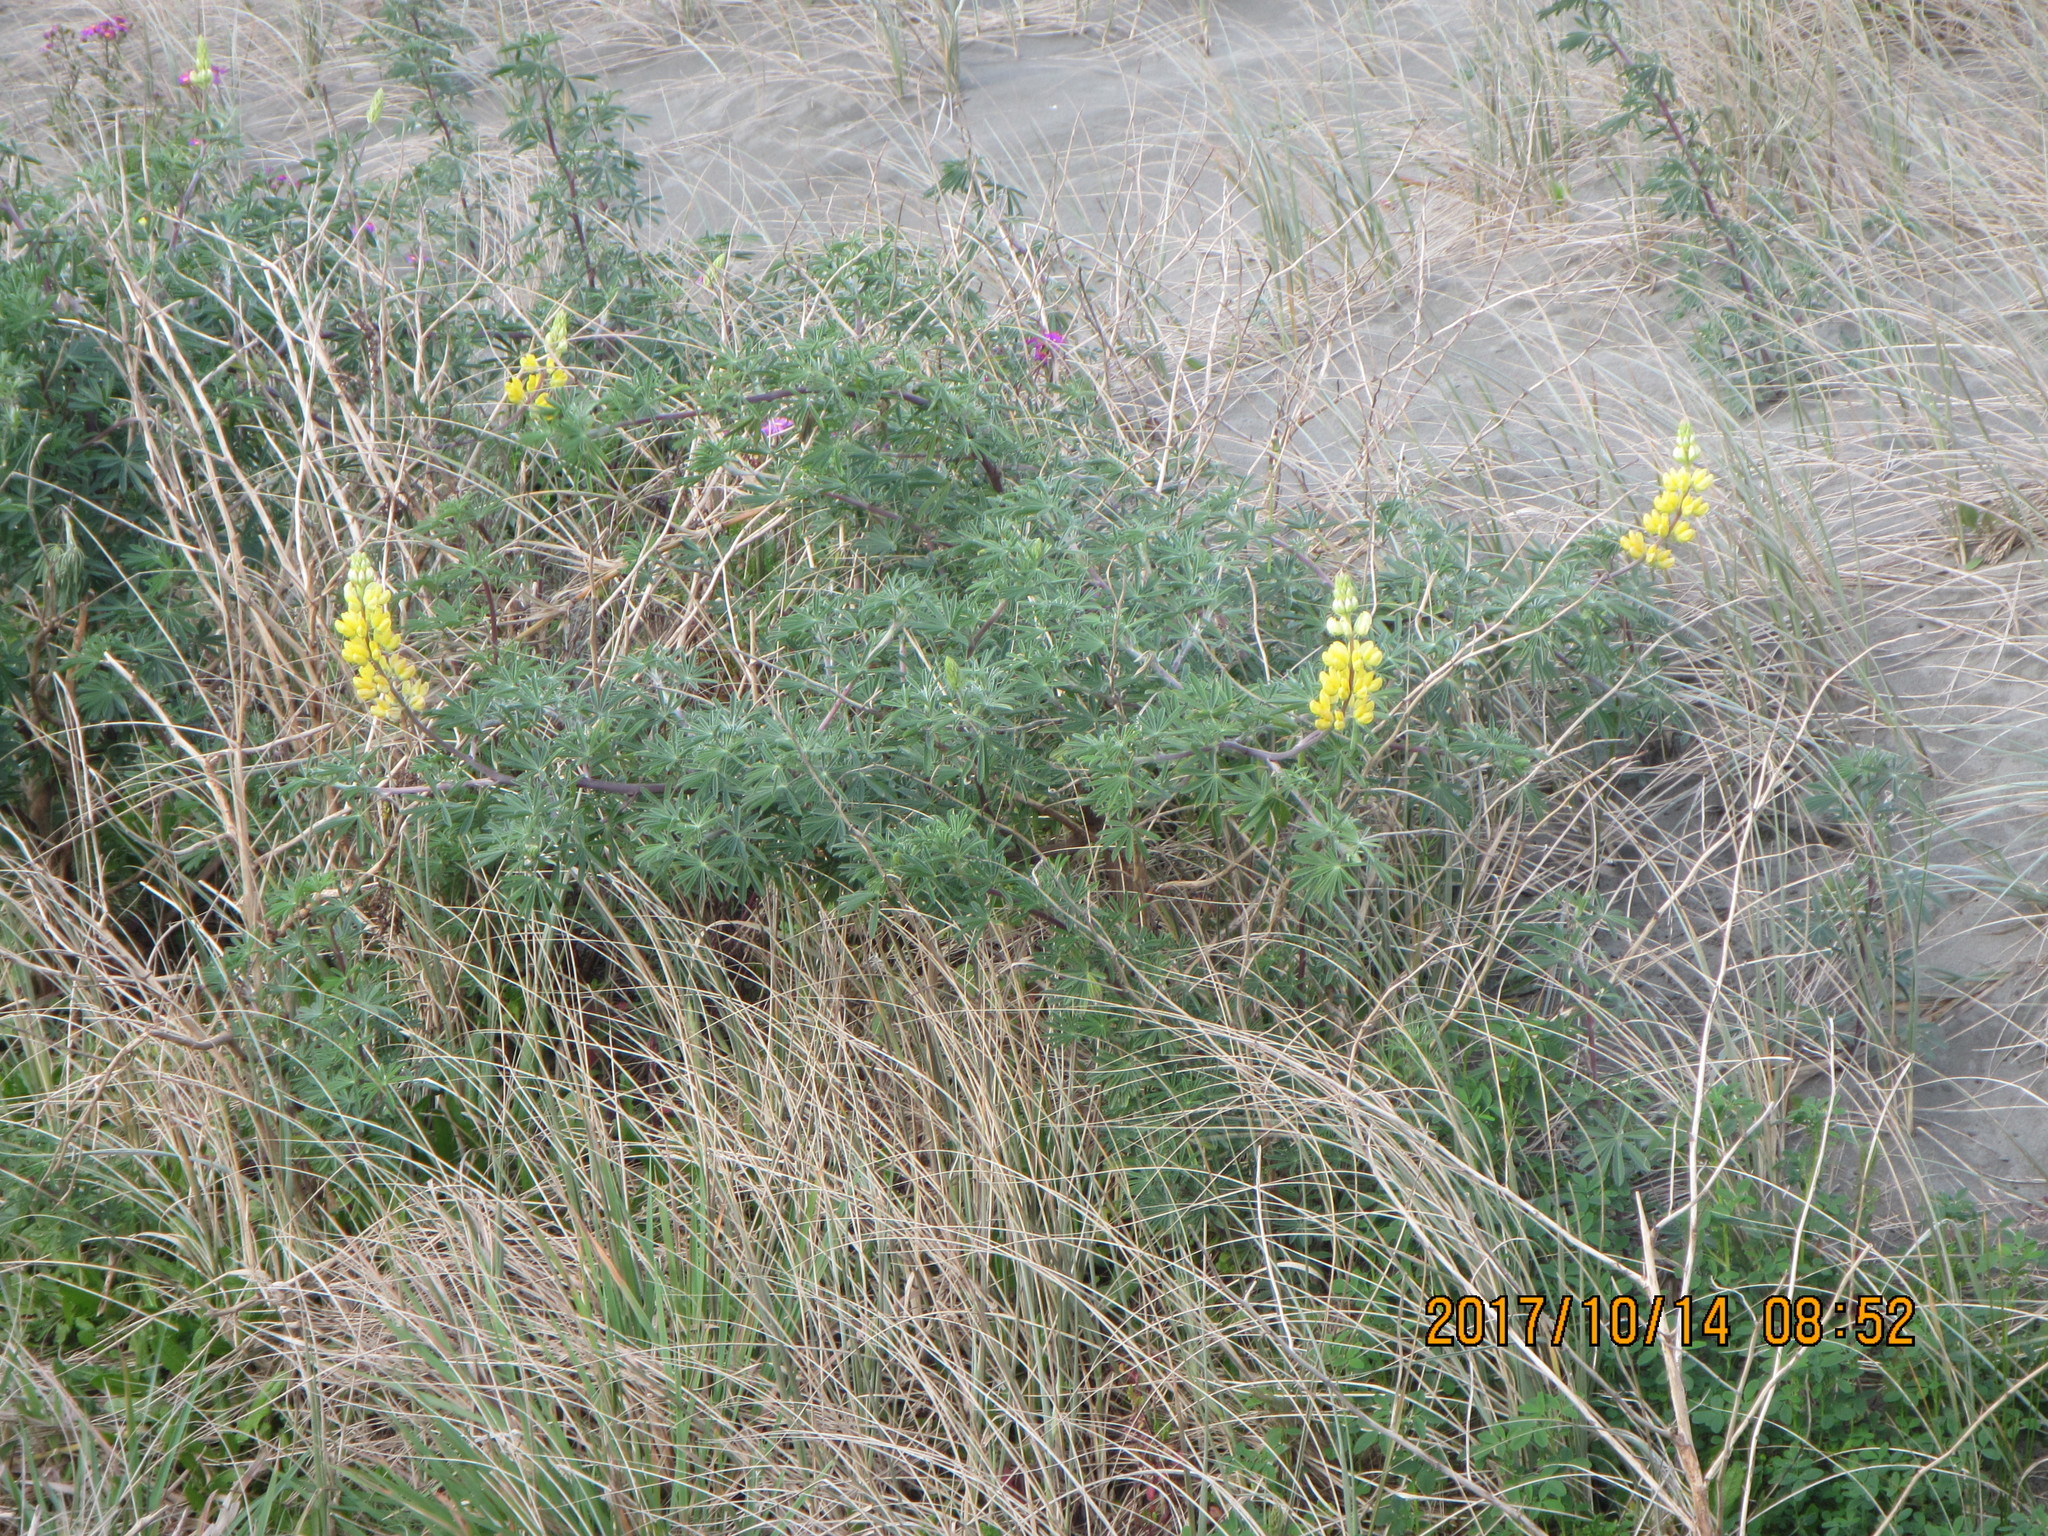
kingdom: Plantae
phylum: Tracheophyta
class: Magnoliopsida
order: Fabales
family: Fabaceae
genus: Lupinus
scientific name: Lupinus arboreus
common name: Yellow bush lupine
